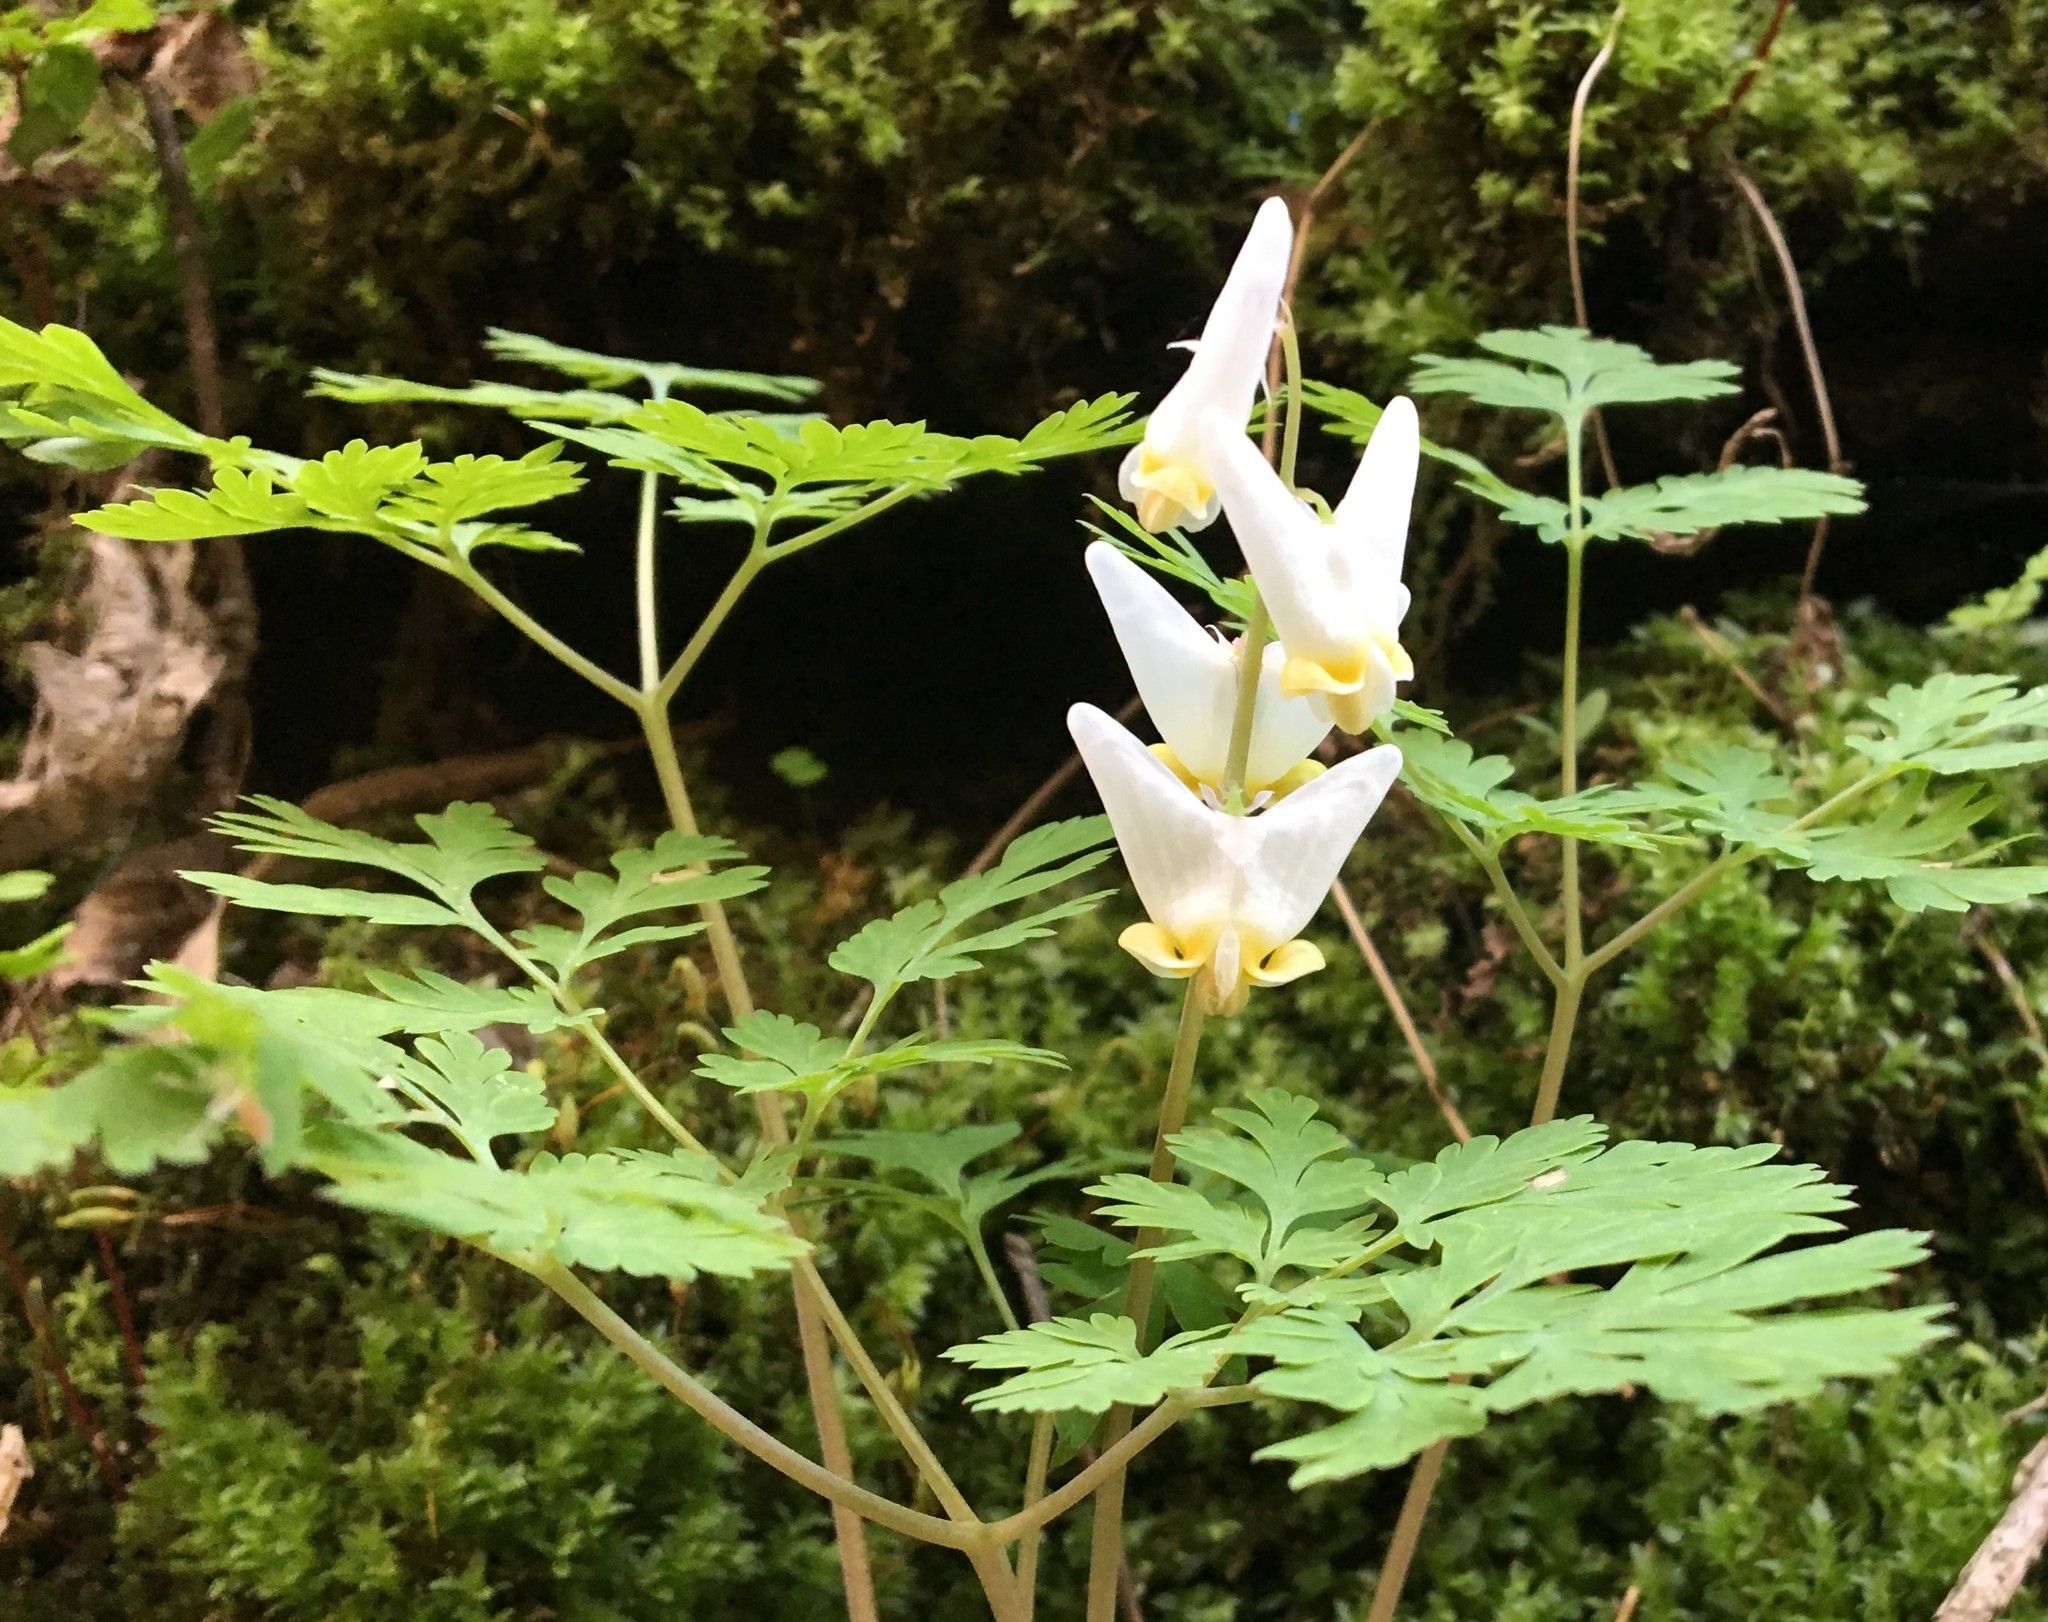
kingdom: Plantae
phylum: Tracheophyta
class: Magnoliopsida
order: Ranunculales
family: Papaveraceae
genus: Dicentra
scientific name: Dicentra cucullaria
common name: Dutchman's breeches
